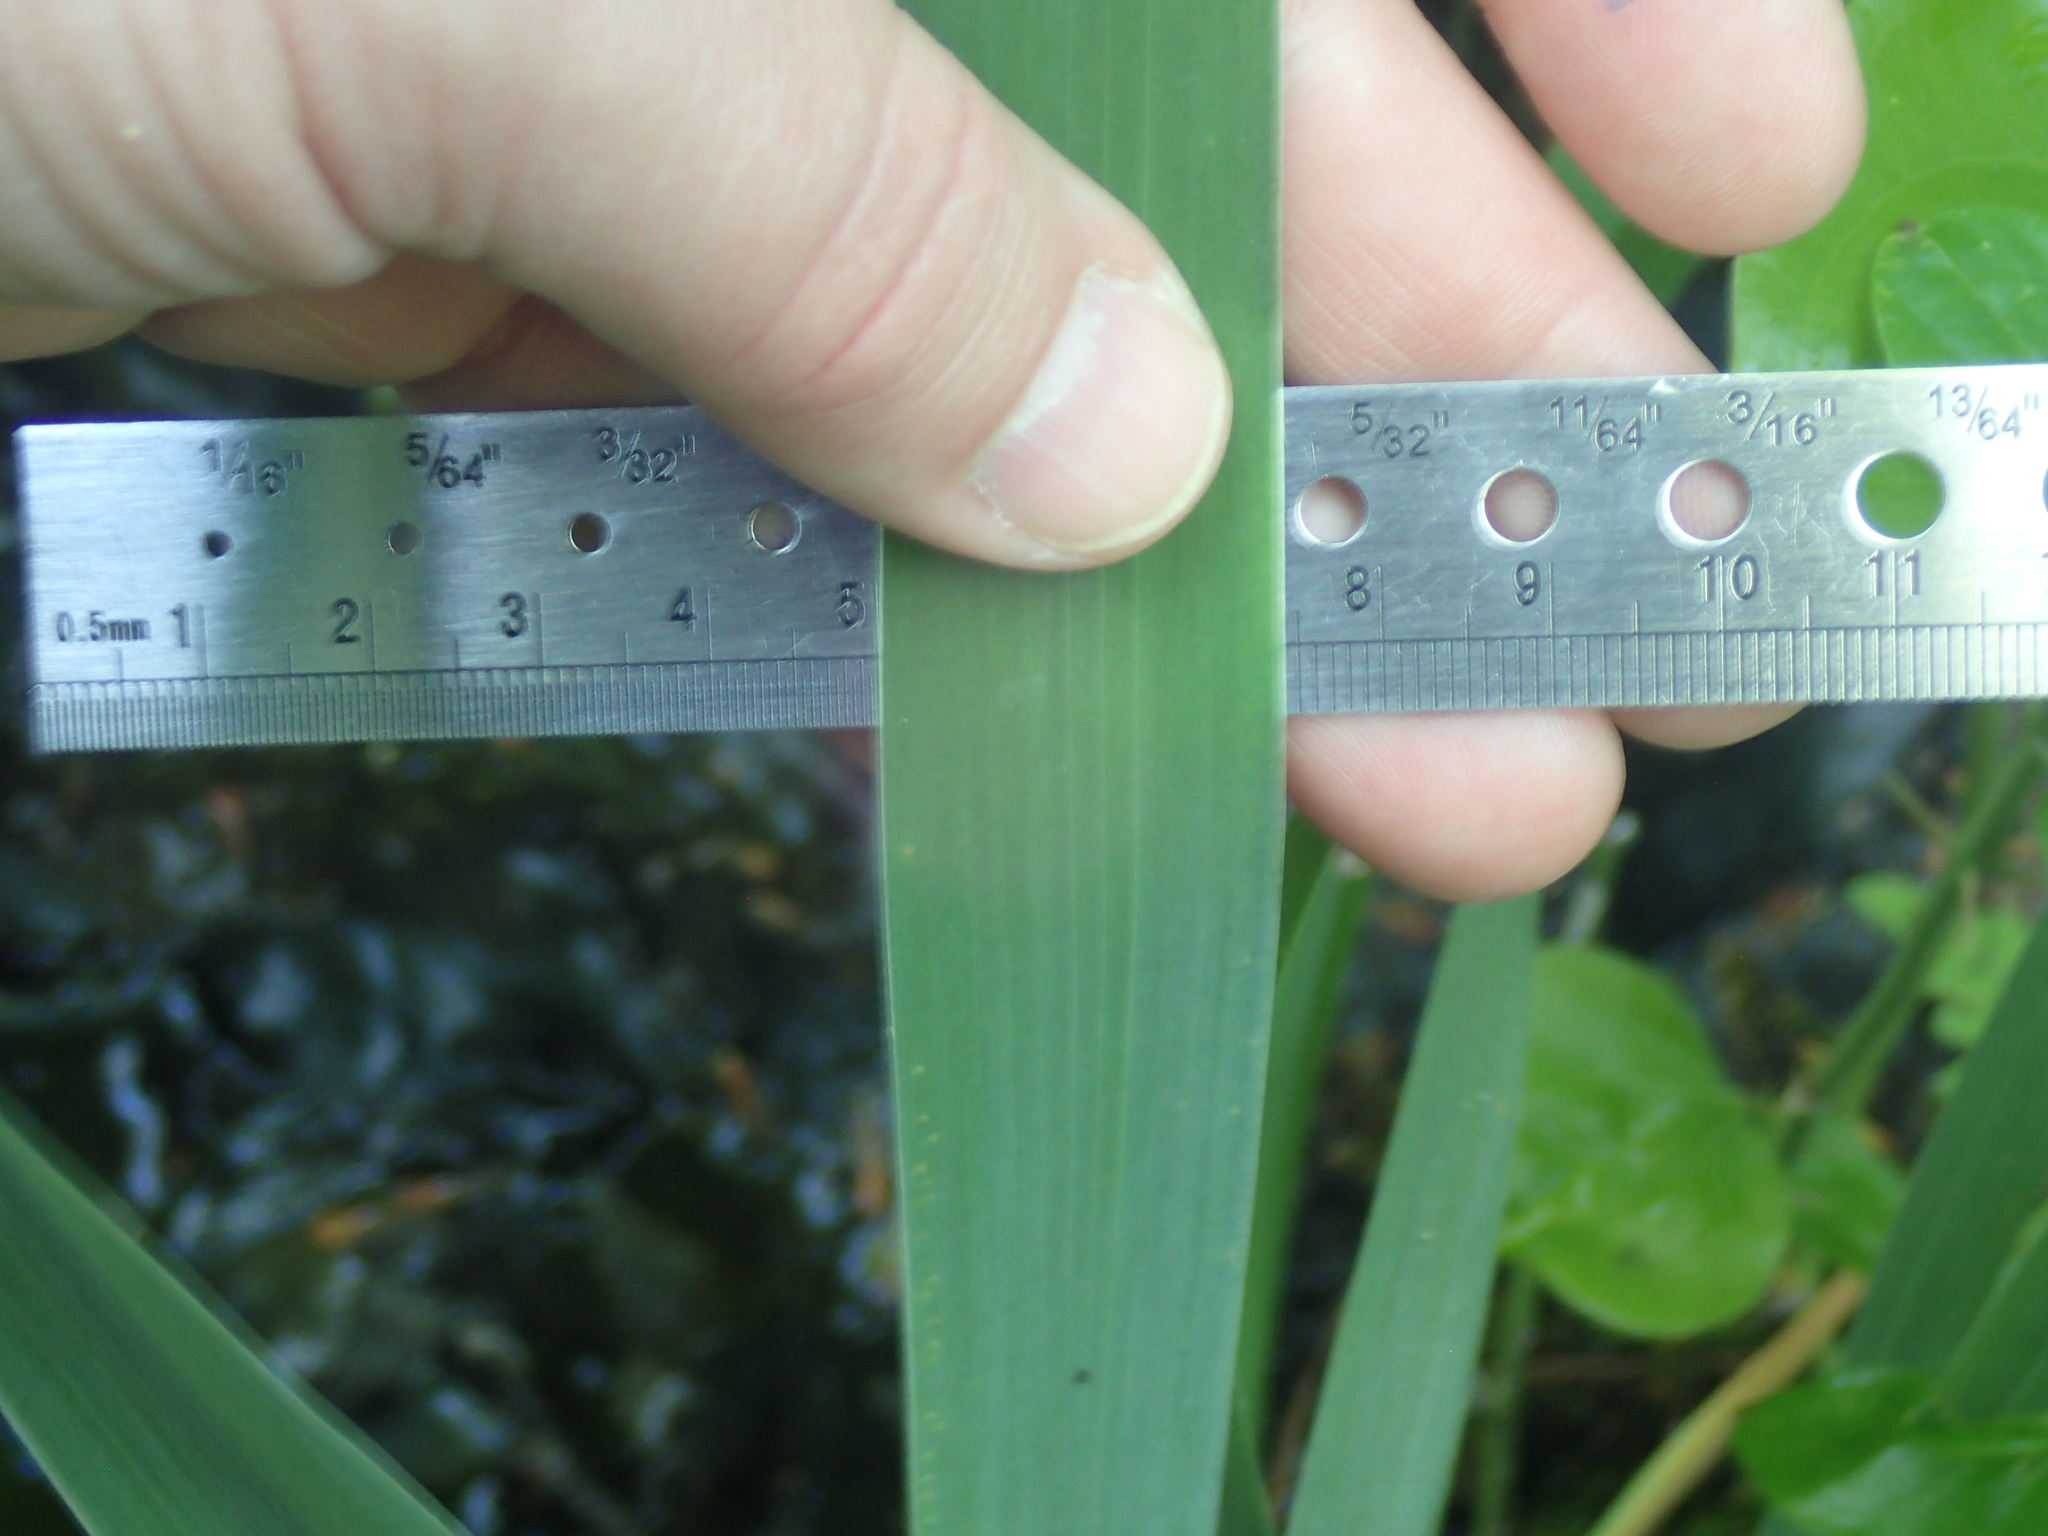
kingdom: Plantae
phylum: Tracheophyta
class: Liliopsida
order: Asparagales
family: Iridaceae
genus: Iris
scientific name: Iris versicolor
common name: Purple iris
